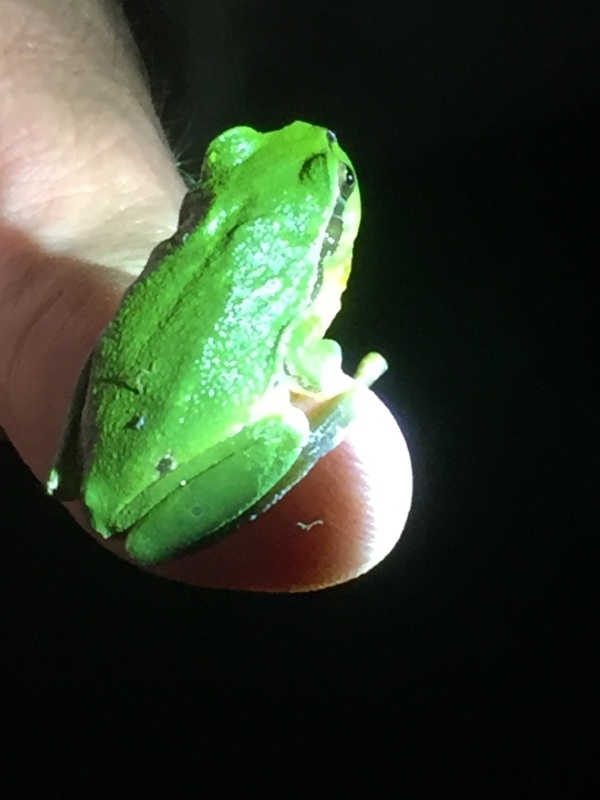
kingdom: Animalia
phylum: Chordata
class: Amphibia
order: Anura
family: Hylidae
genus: Hyla
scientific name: Hyla arborea
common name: Common tree frog
